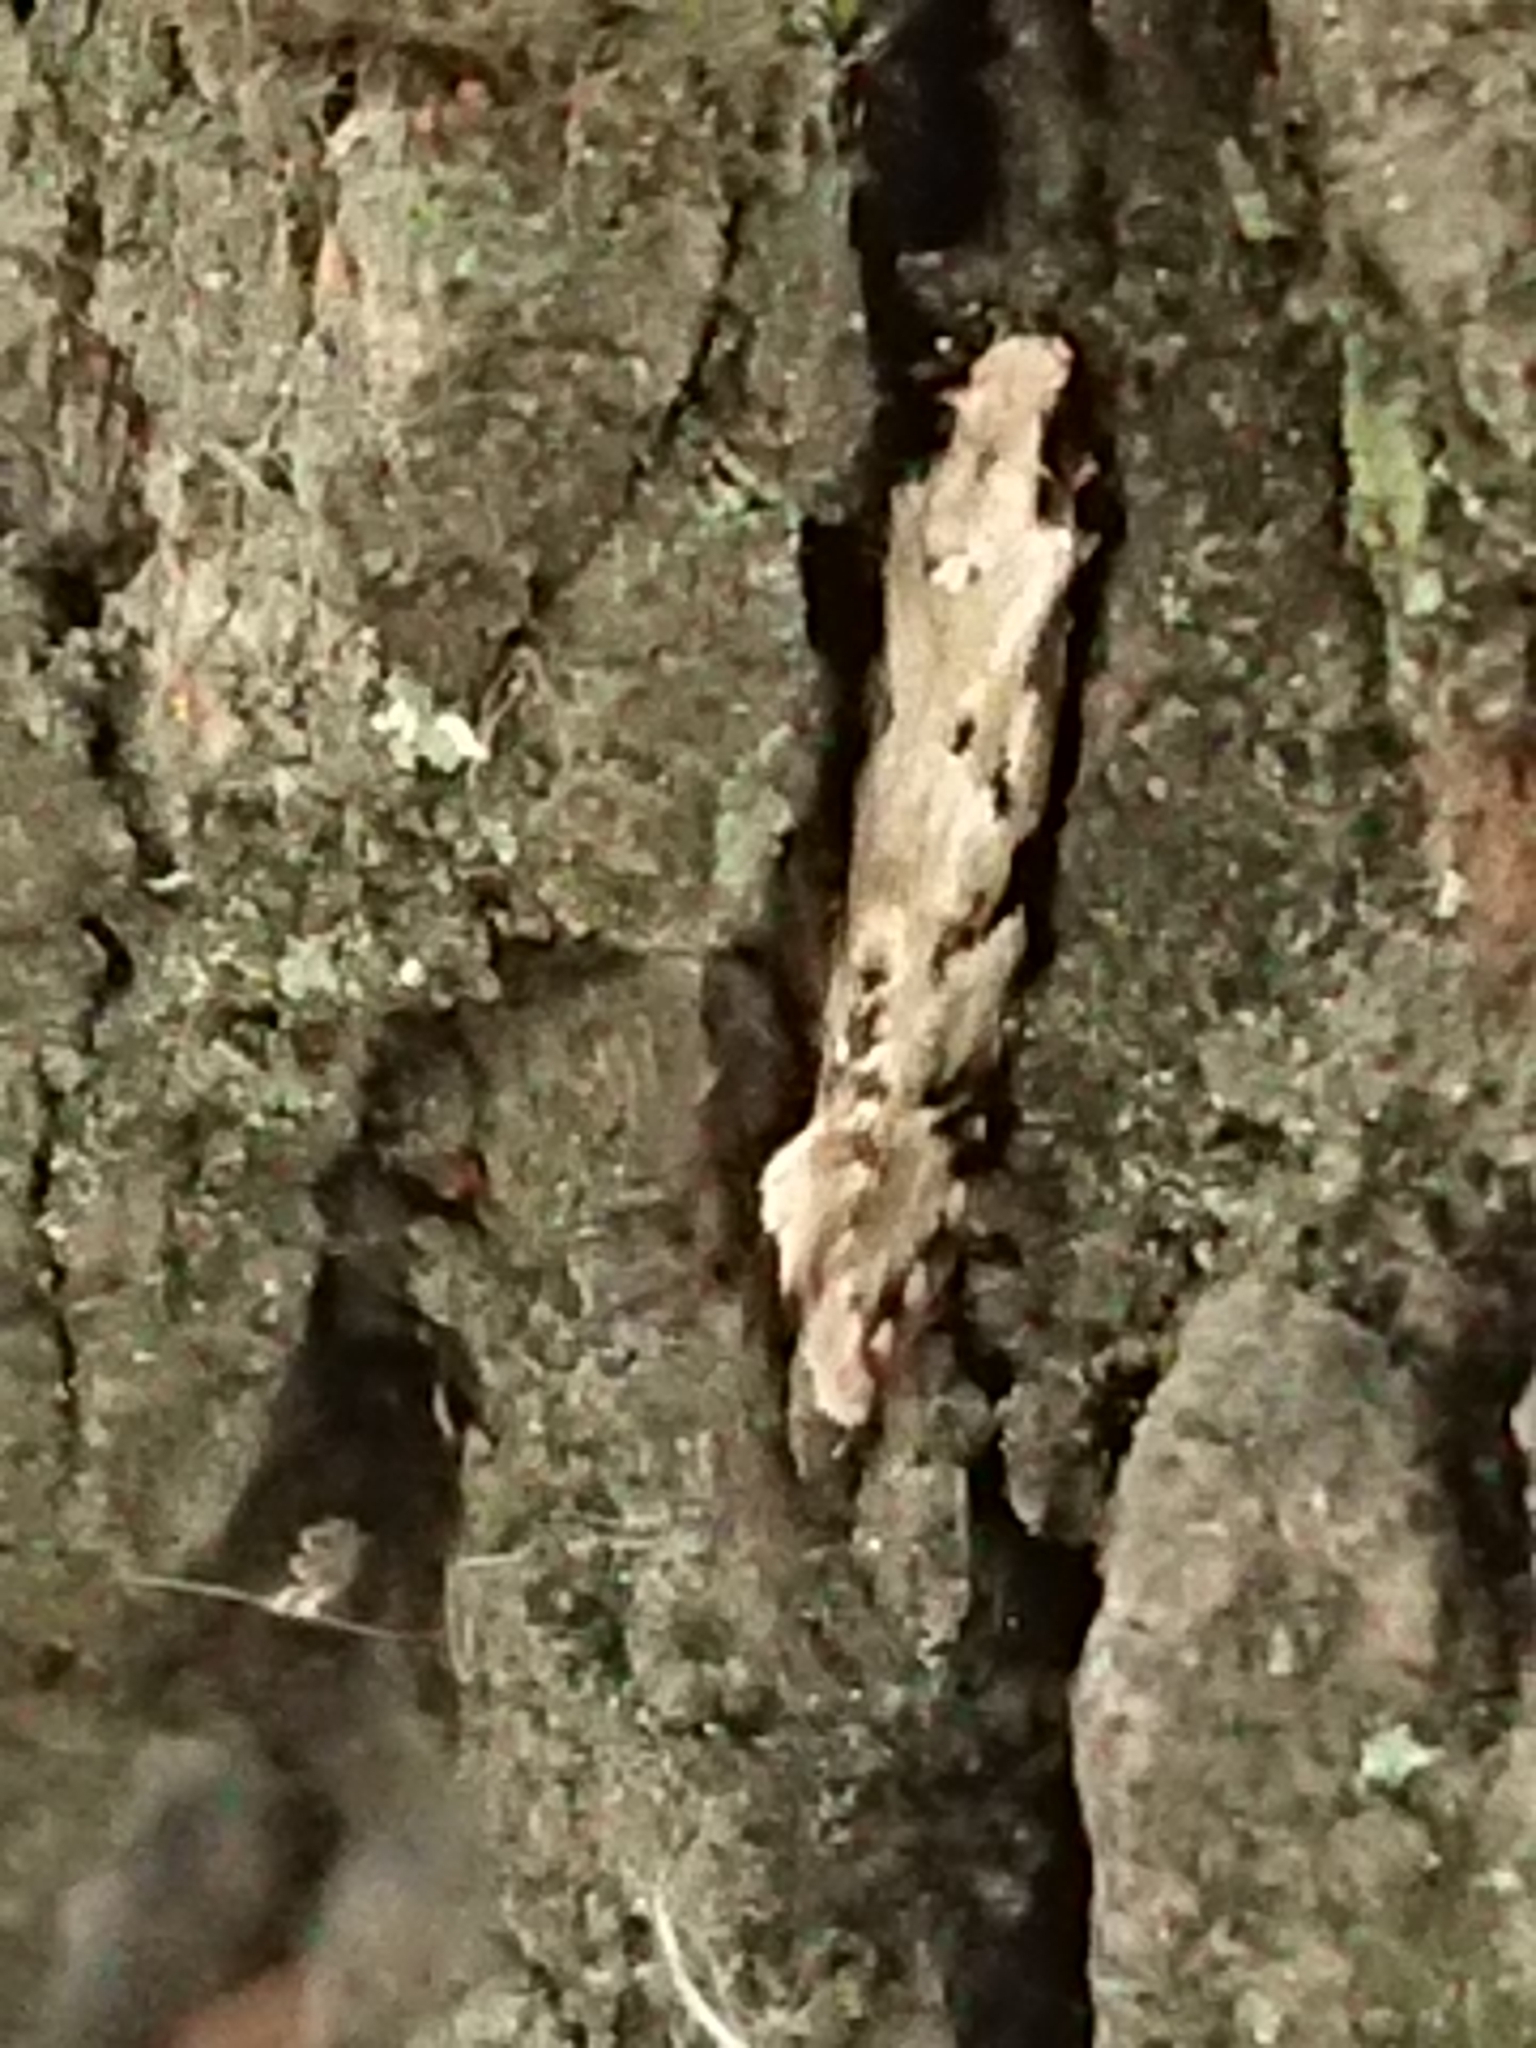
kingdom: Animalia
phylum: Arthropoda
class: Insecta
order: Lepidoptera
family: Tineidae
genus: Crypsitricha
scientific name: Crypsitricha mesotypa
